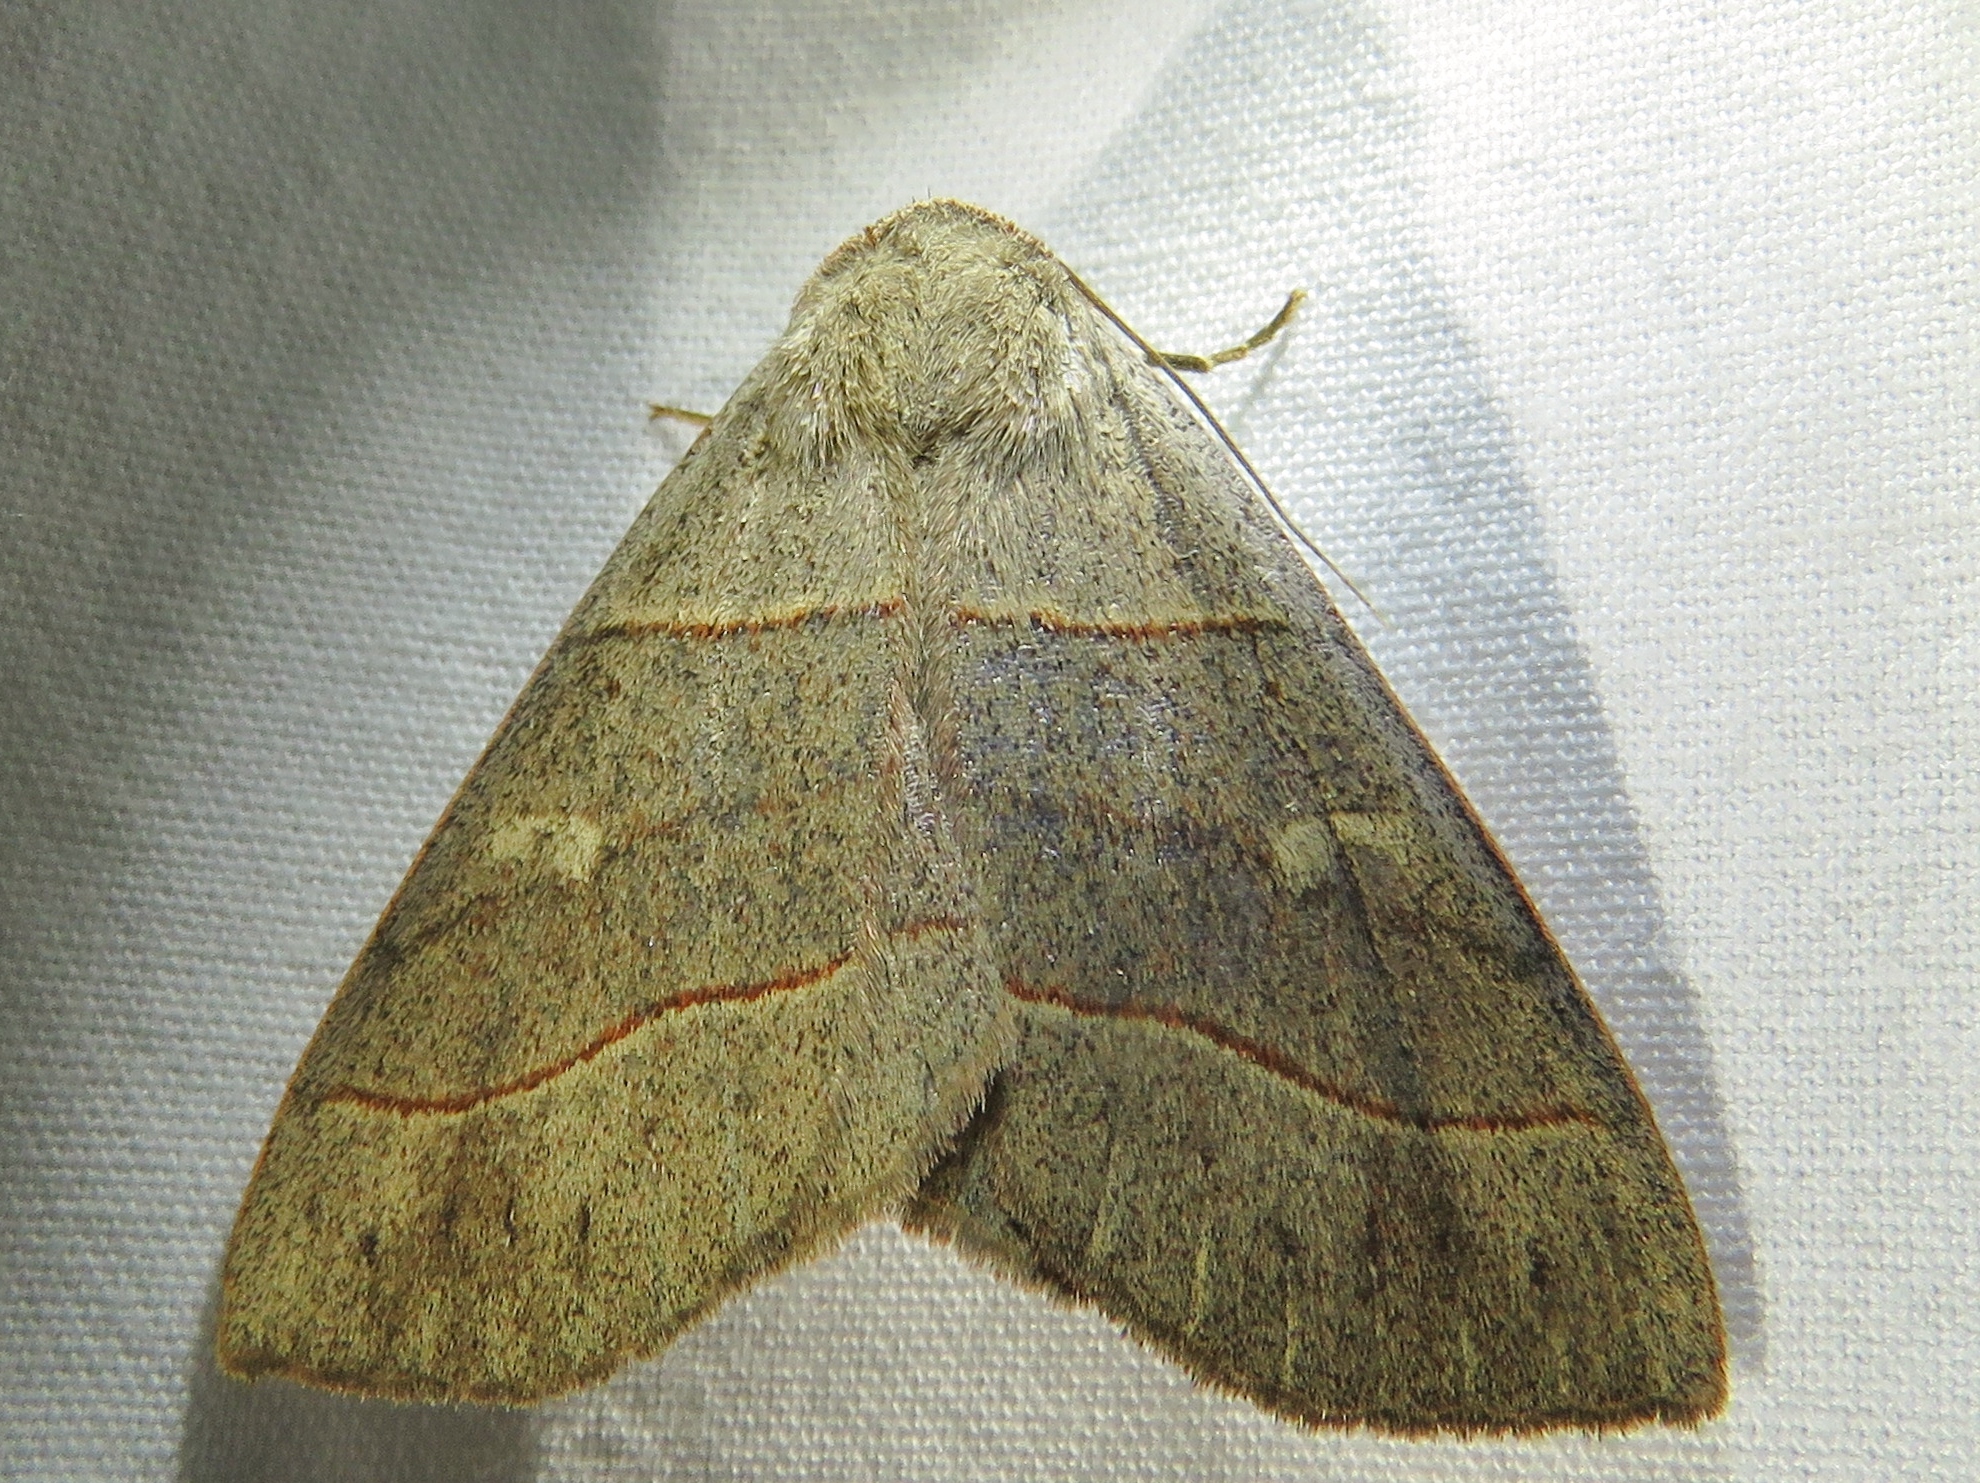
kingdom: Animalia
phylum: Arthropoda
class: Insecta
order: Lepidoptera
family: Erebidae
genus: Panopoda
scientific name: Panopoda rufimargo
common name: Red-lined panopoda moth
